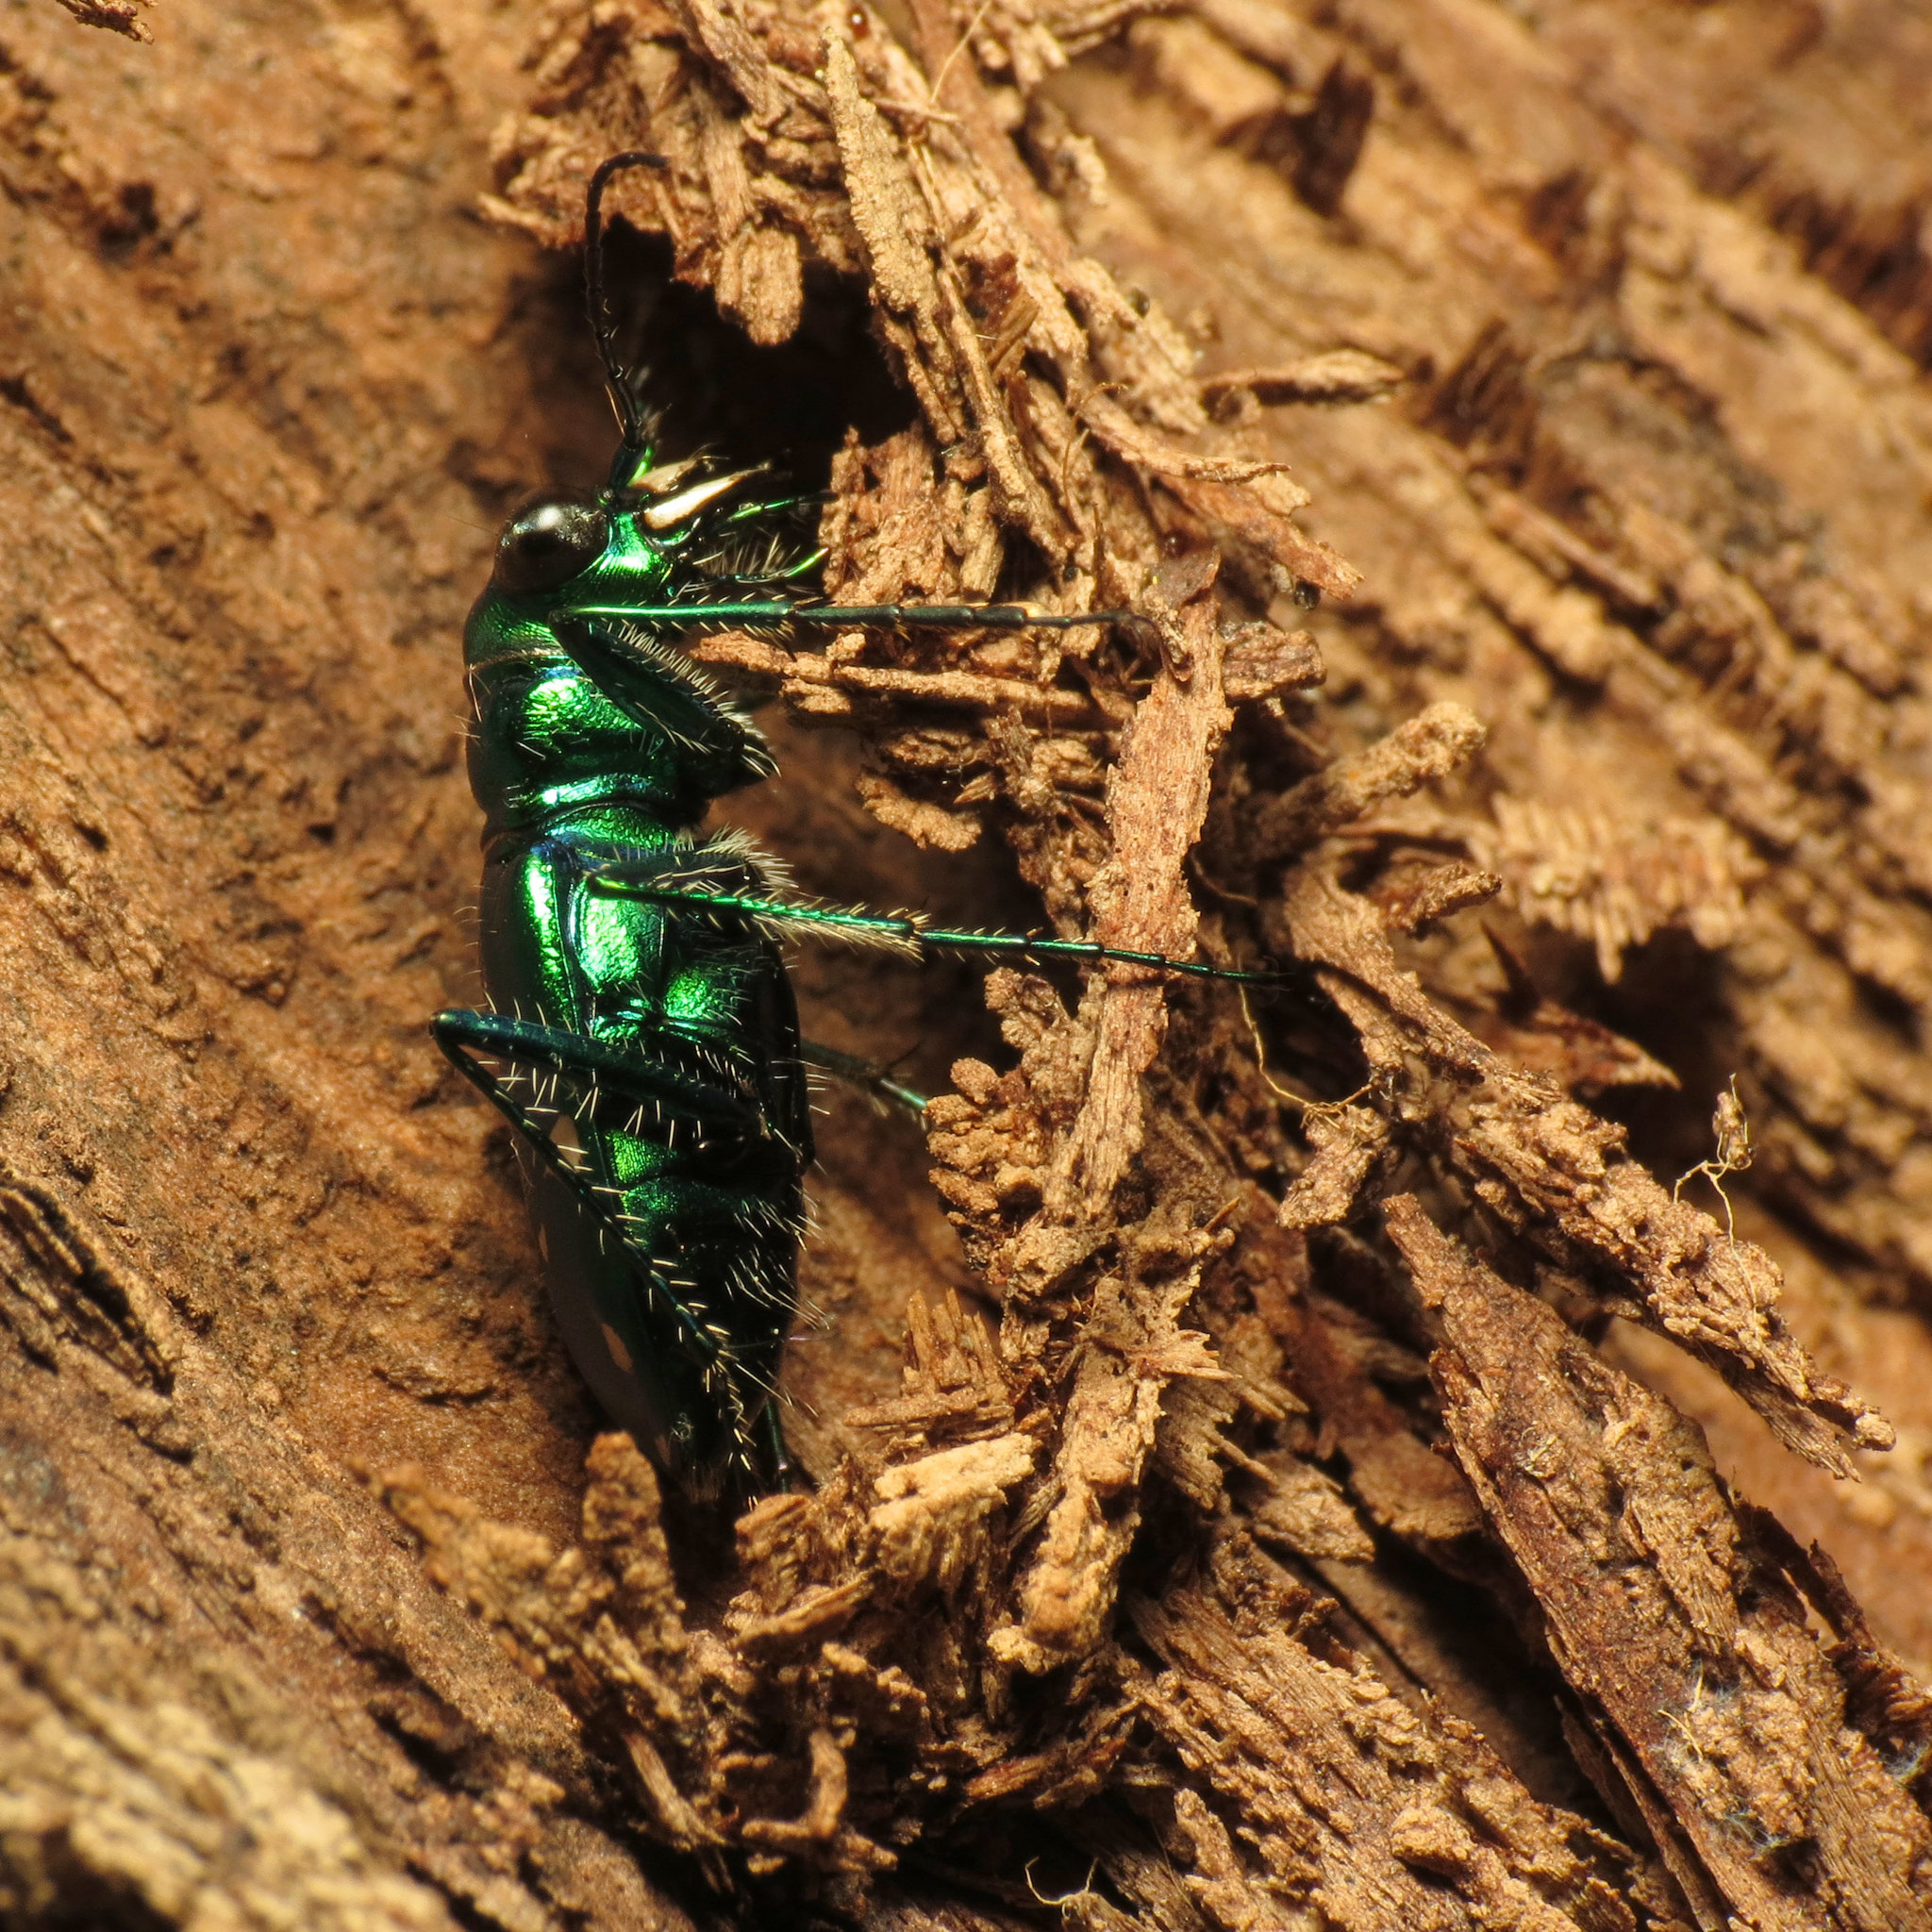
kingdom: Animalia
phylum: Arthropoda
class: Insecta
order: Coleoptera
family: Carabidae
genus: Cicindela
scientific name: Cicindela sexguttata
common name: Six-spotted tiger beetle
